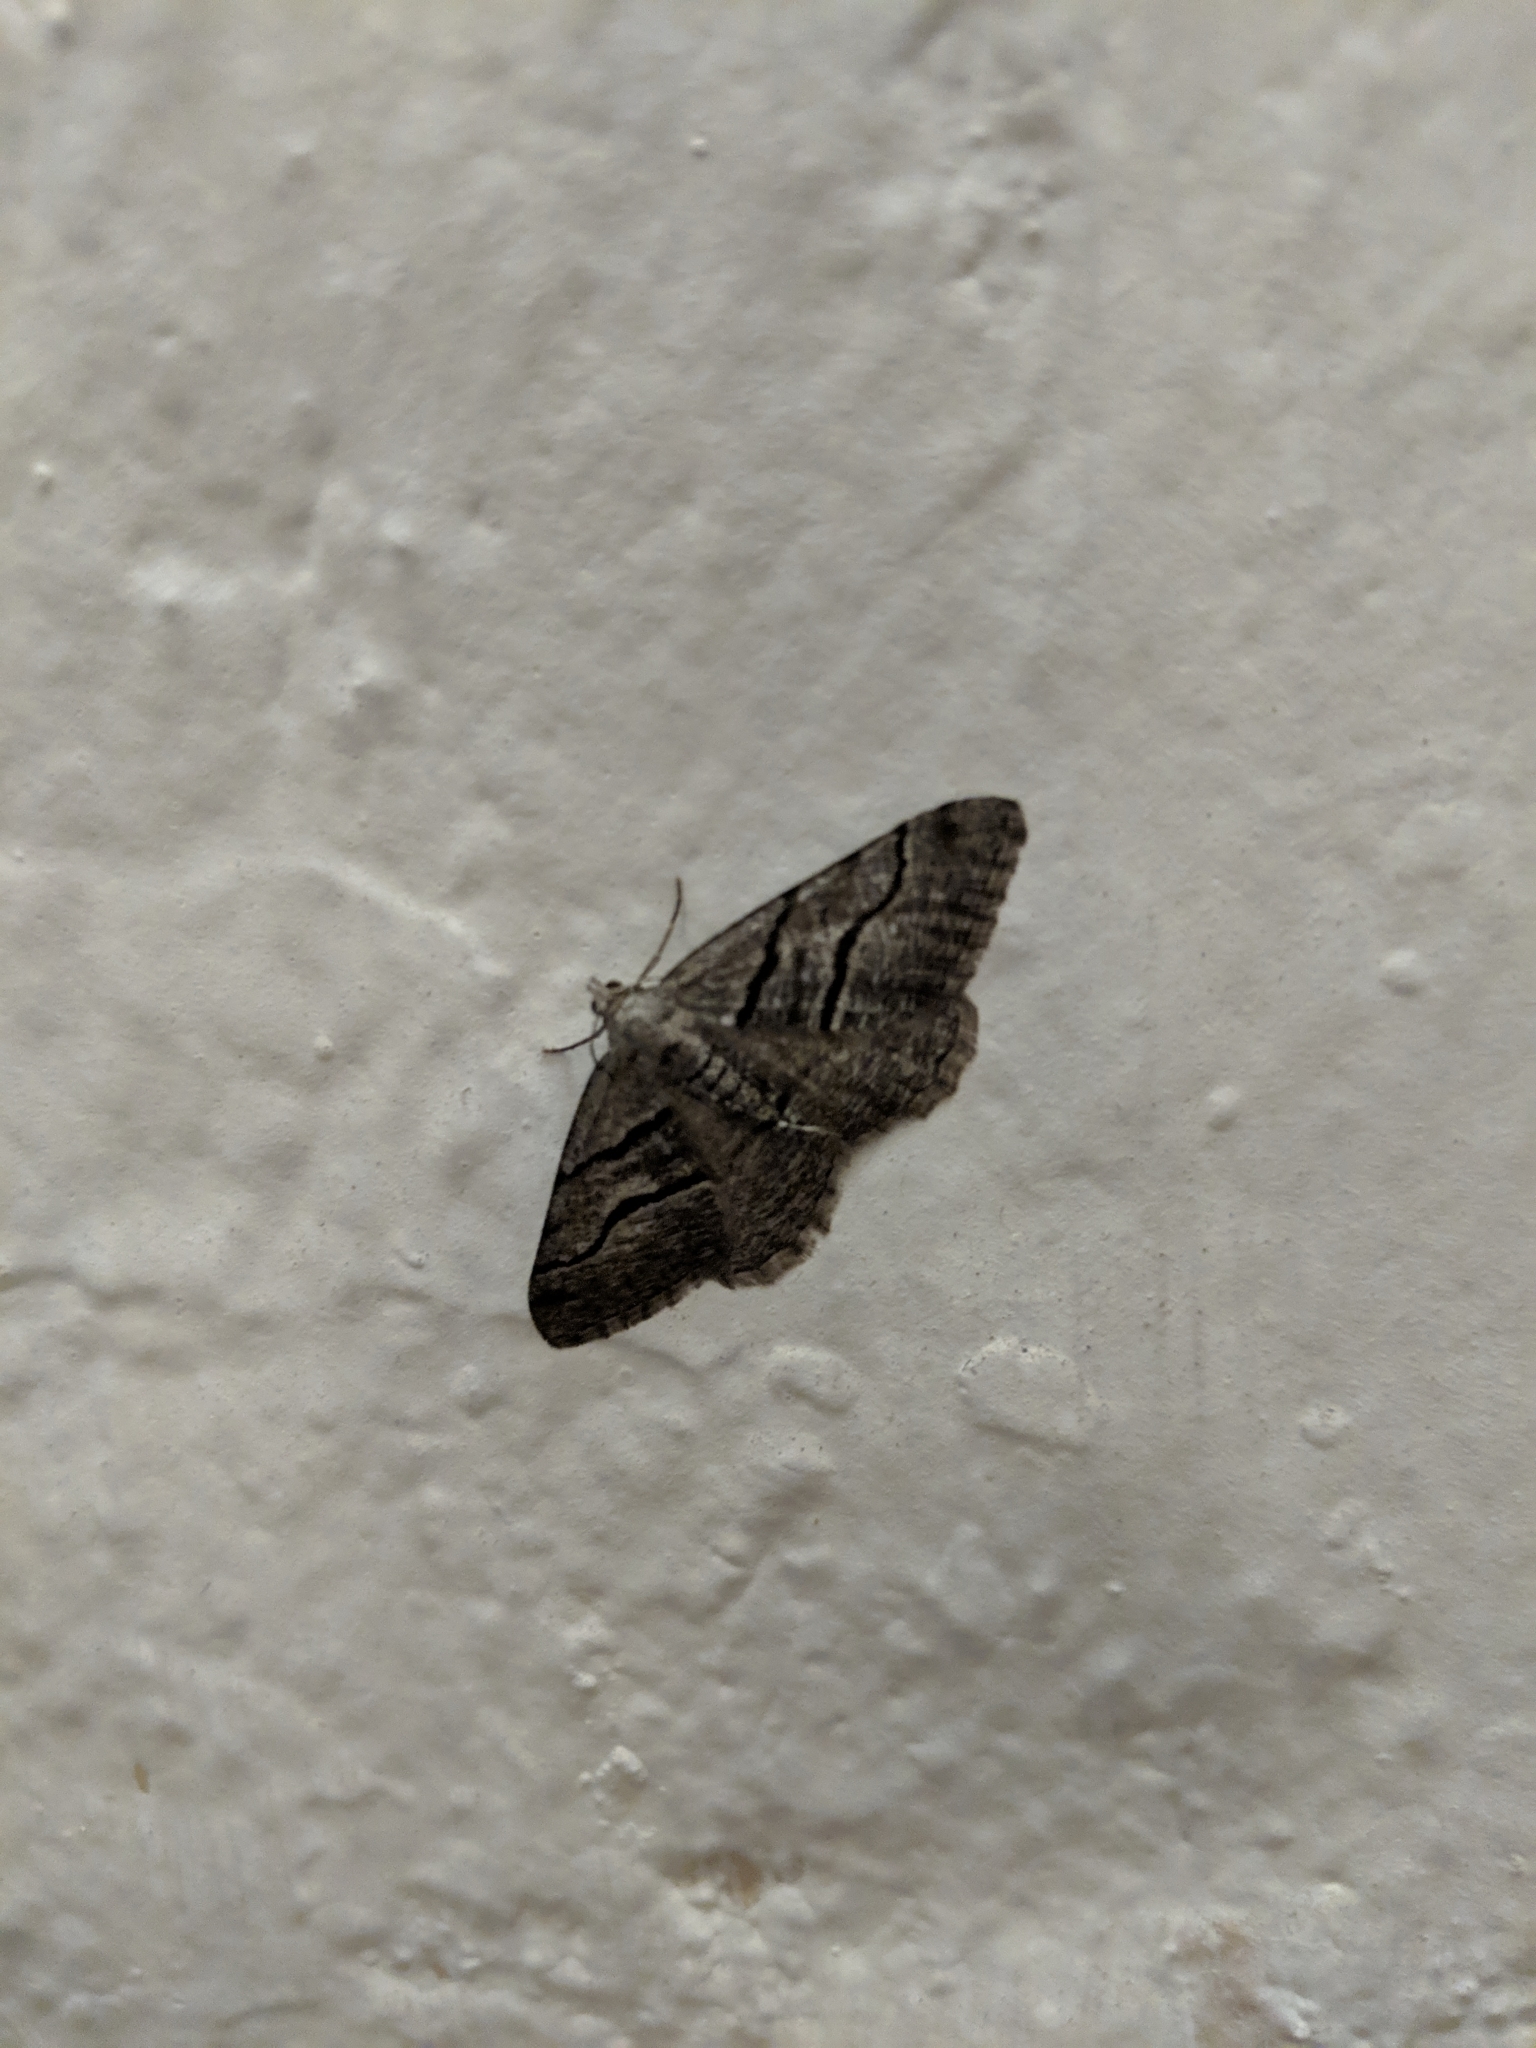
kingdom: Animalia
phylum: Arthropoda
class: Insecta
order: Lepidoptera
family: Geometridae
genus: Digrammia
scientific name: Digrammia napensis
